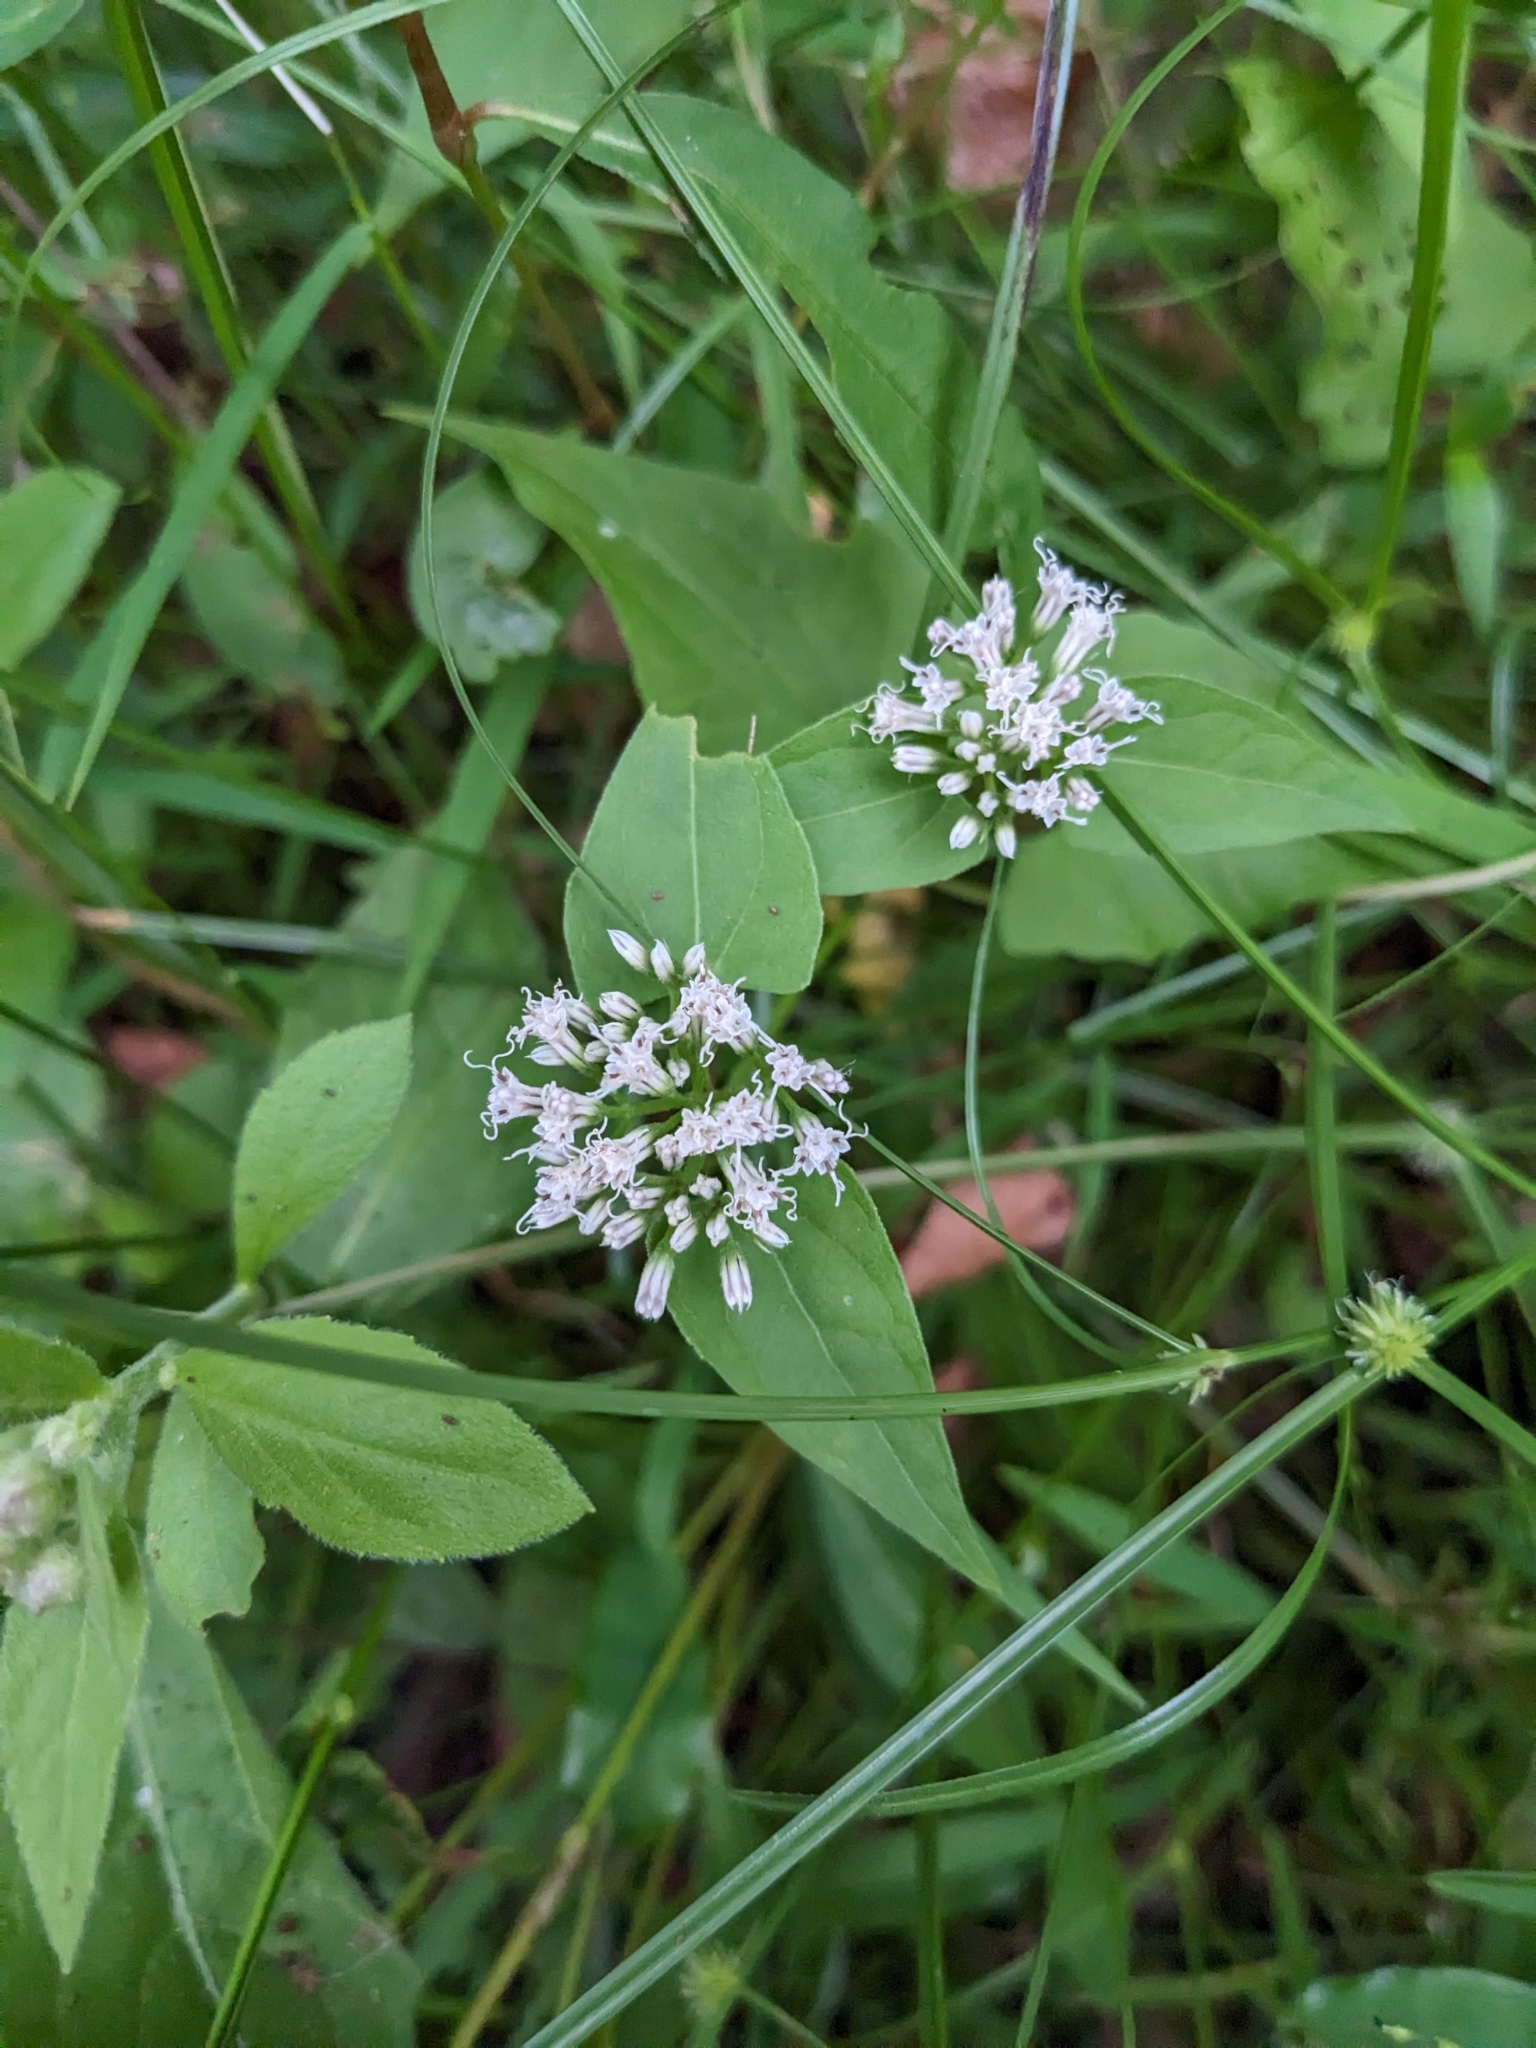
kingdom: Plantae
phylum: Tracheophyta
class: Magnoliopsida
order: Asterales
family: Asteraceae
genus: Mikania
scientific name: Mikania scandens
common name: Climbing hempvine
